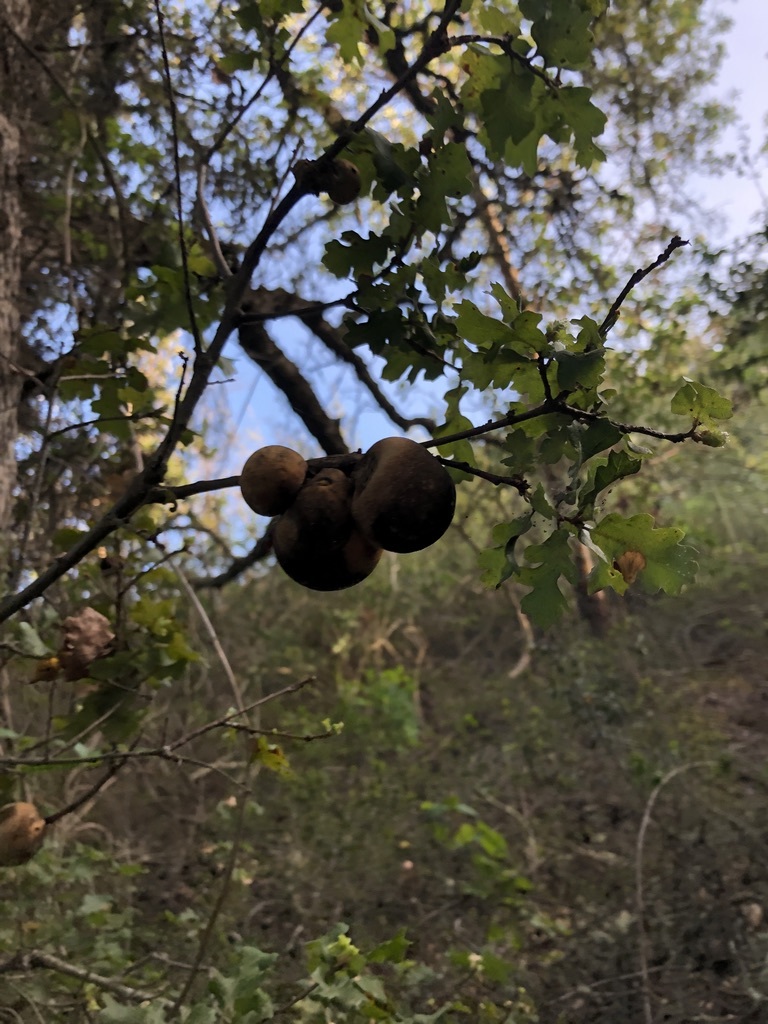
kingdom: Animalia
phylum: Arthropoda
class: Insecta
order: Hymenoptera
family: Cynipidae
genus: Andricus
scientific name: Andricus quercuscalifornicus
